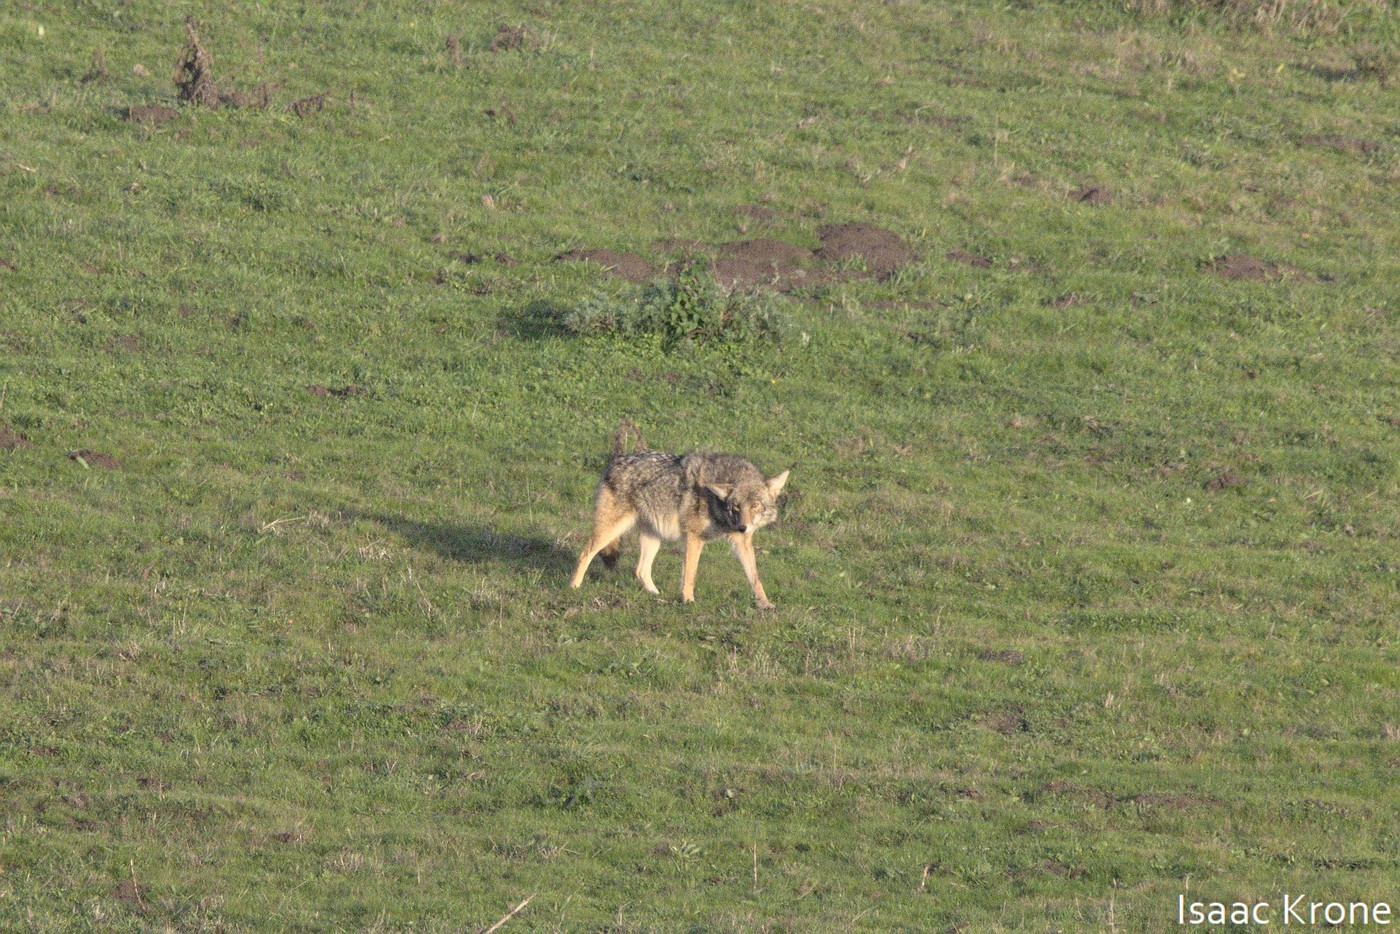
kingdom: Animalia
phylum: Chordata
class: Mammalia
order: Carnivora
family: Canidae
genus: Canis
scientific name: Canis latrans
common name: Coyote
